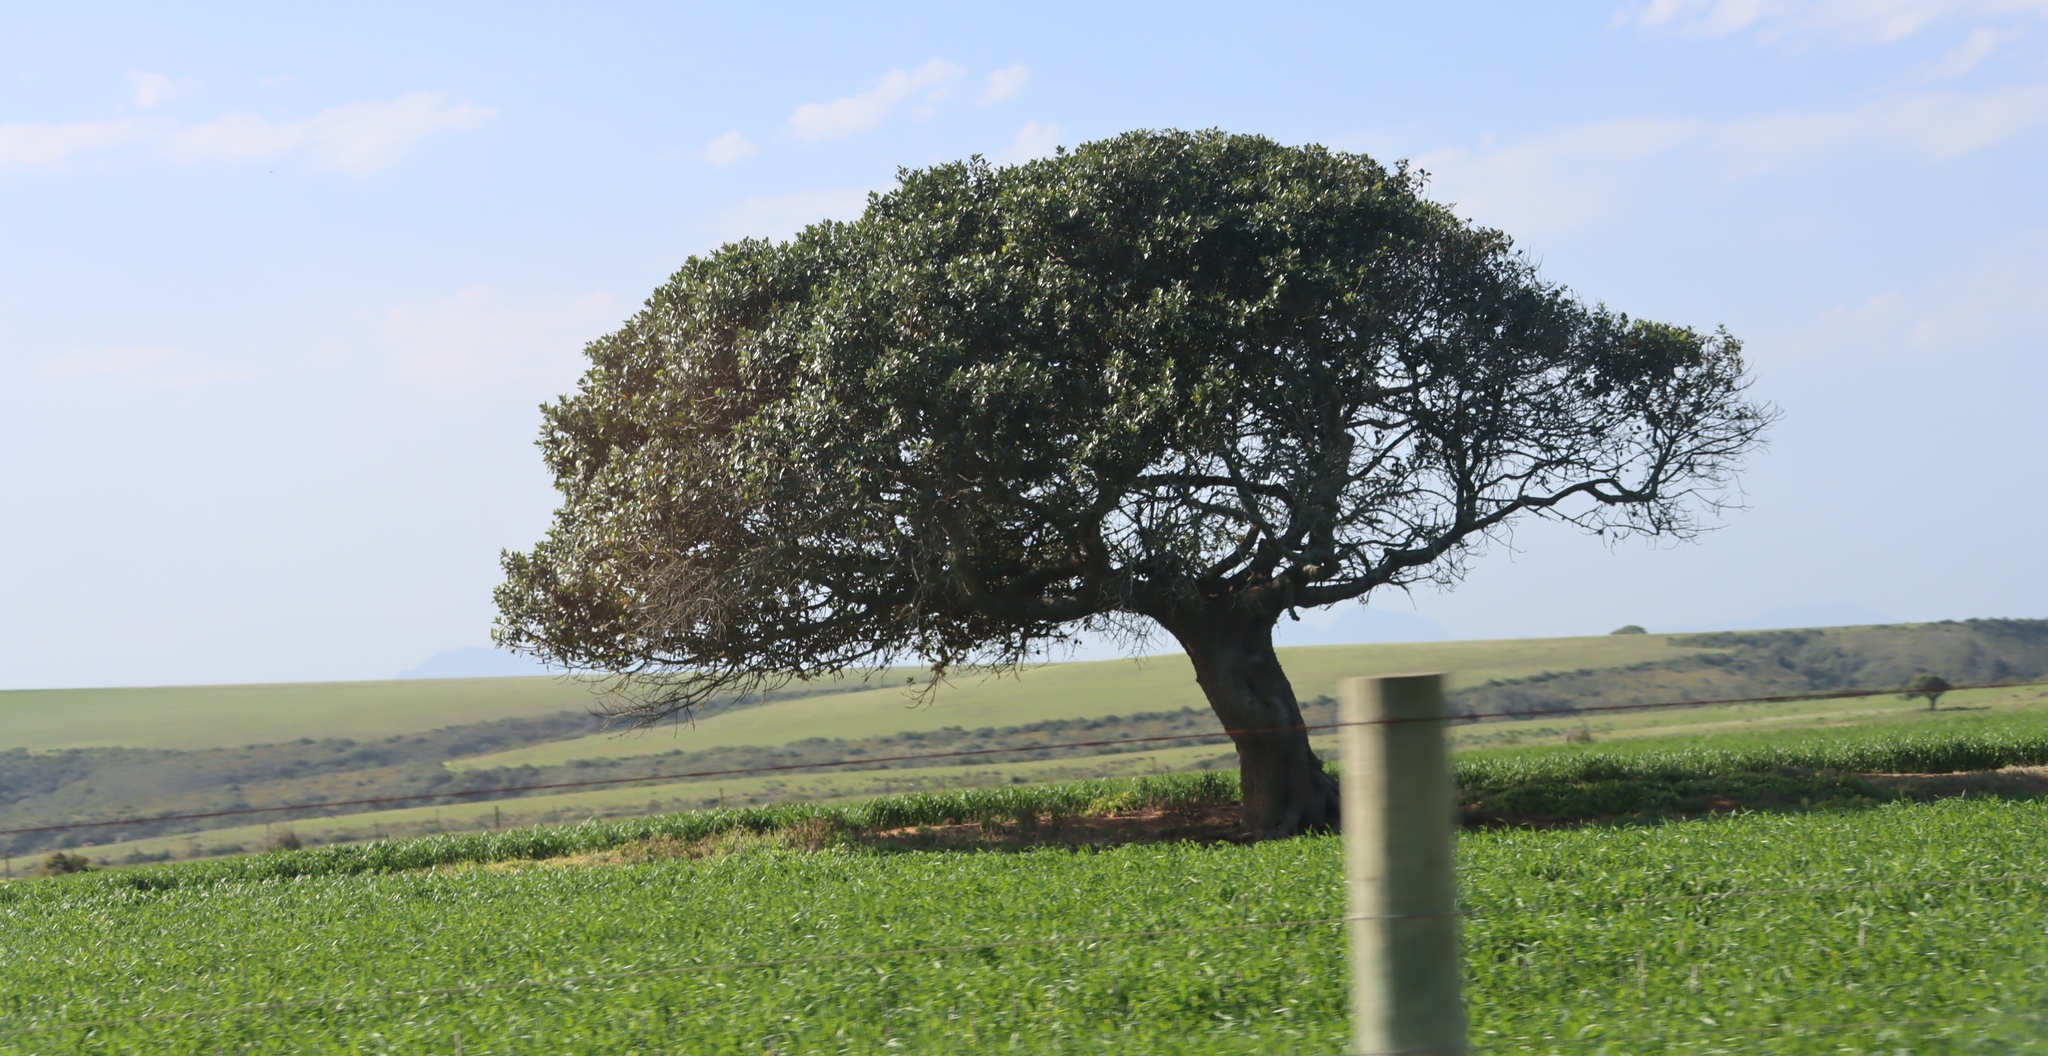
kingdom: Plantae
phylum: Tracheophyta
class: Magnoliopsida
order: Ericales
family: Sapotaceae
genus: Sideroxylon
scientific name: Sideroxylon inerme
